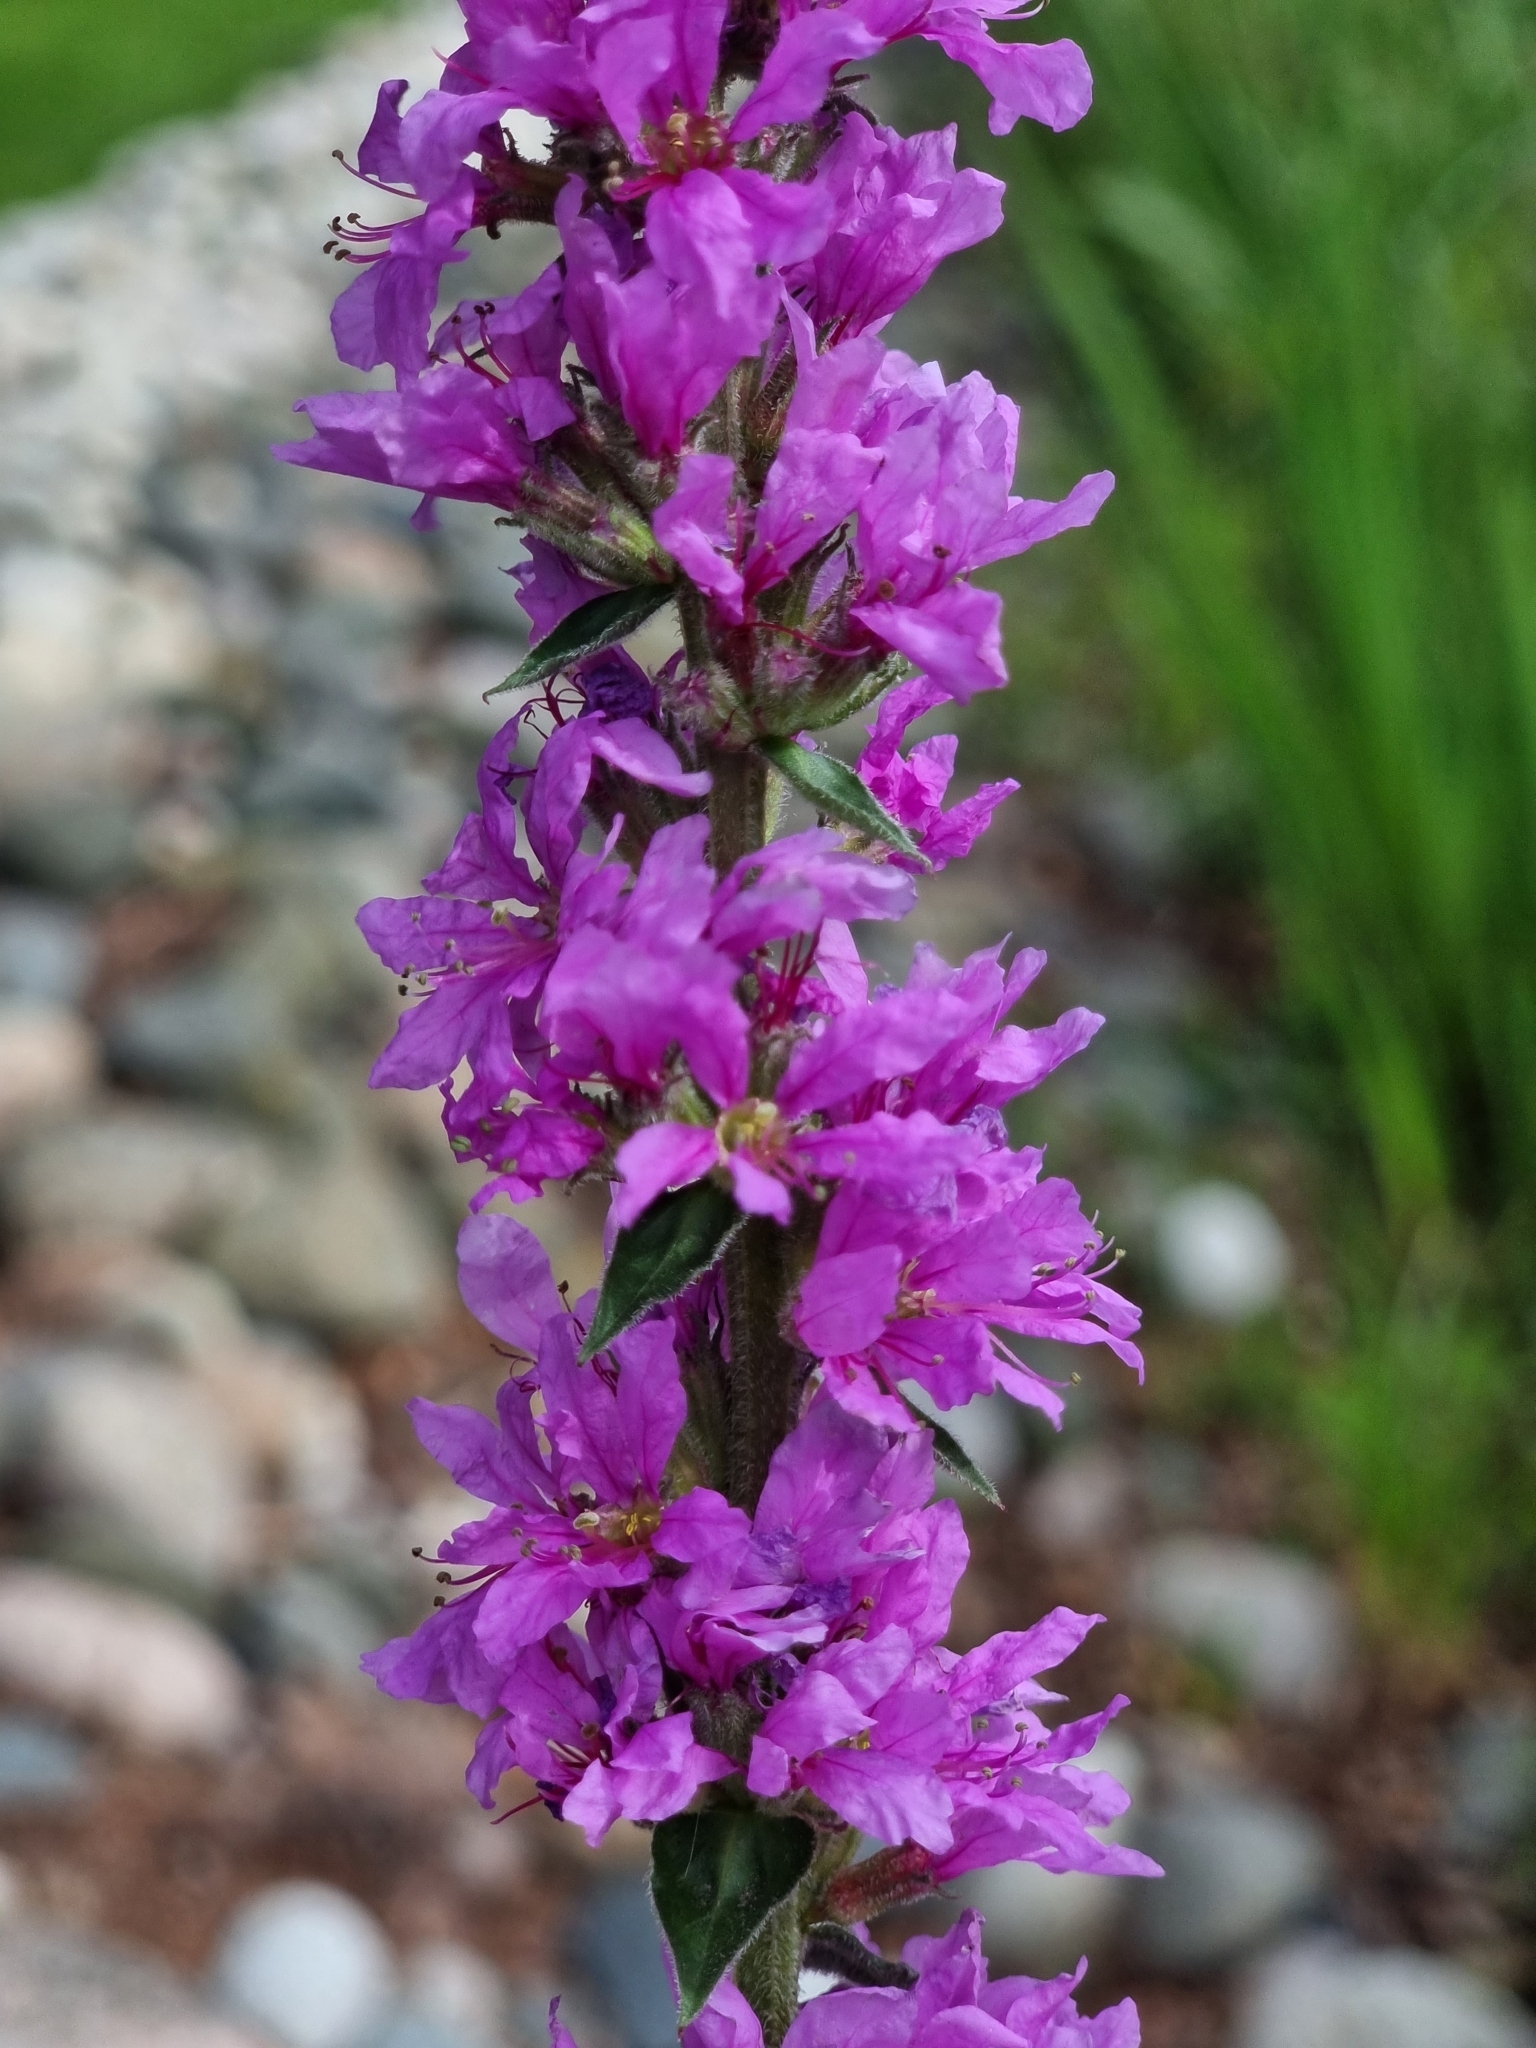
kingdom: Plantae
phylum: Tracheophyta
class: Magnoliopsida
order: Myrtales
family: Lythraceae
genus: Lythrum
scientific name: Lythrum salicaria
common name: Purple loosestrife
